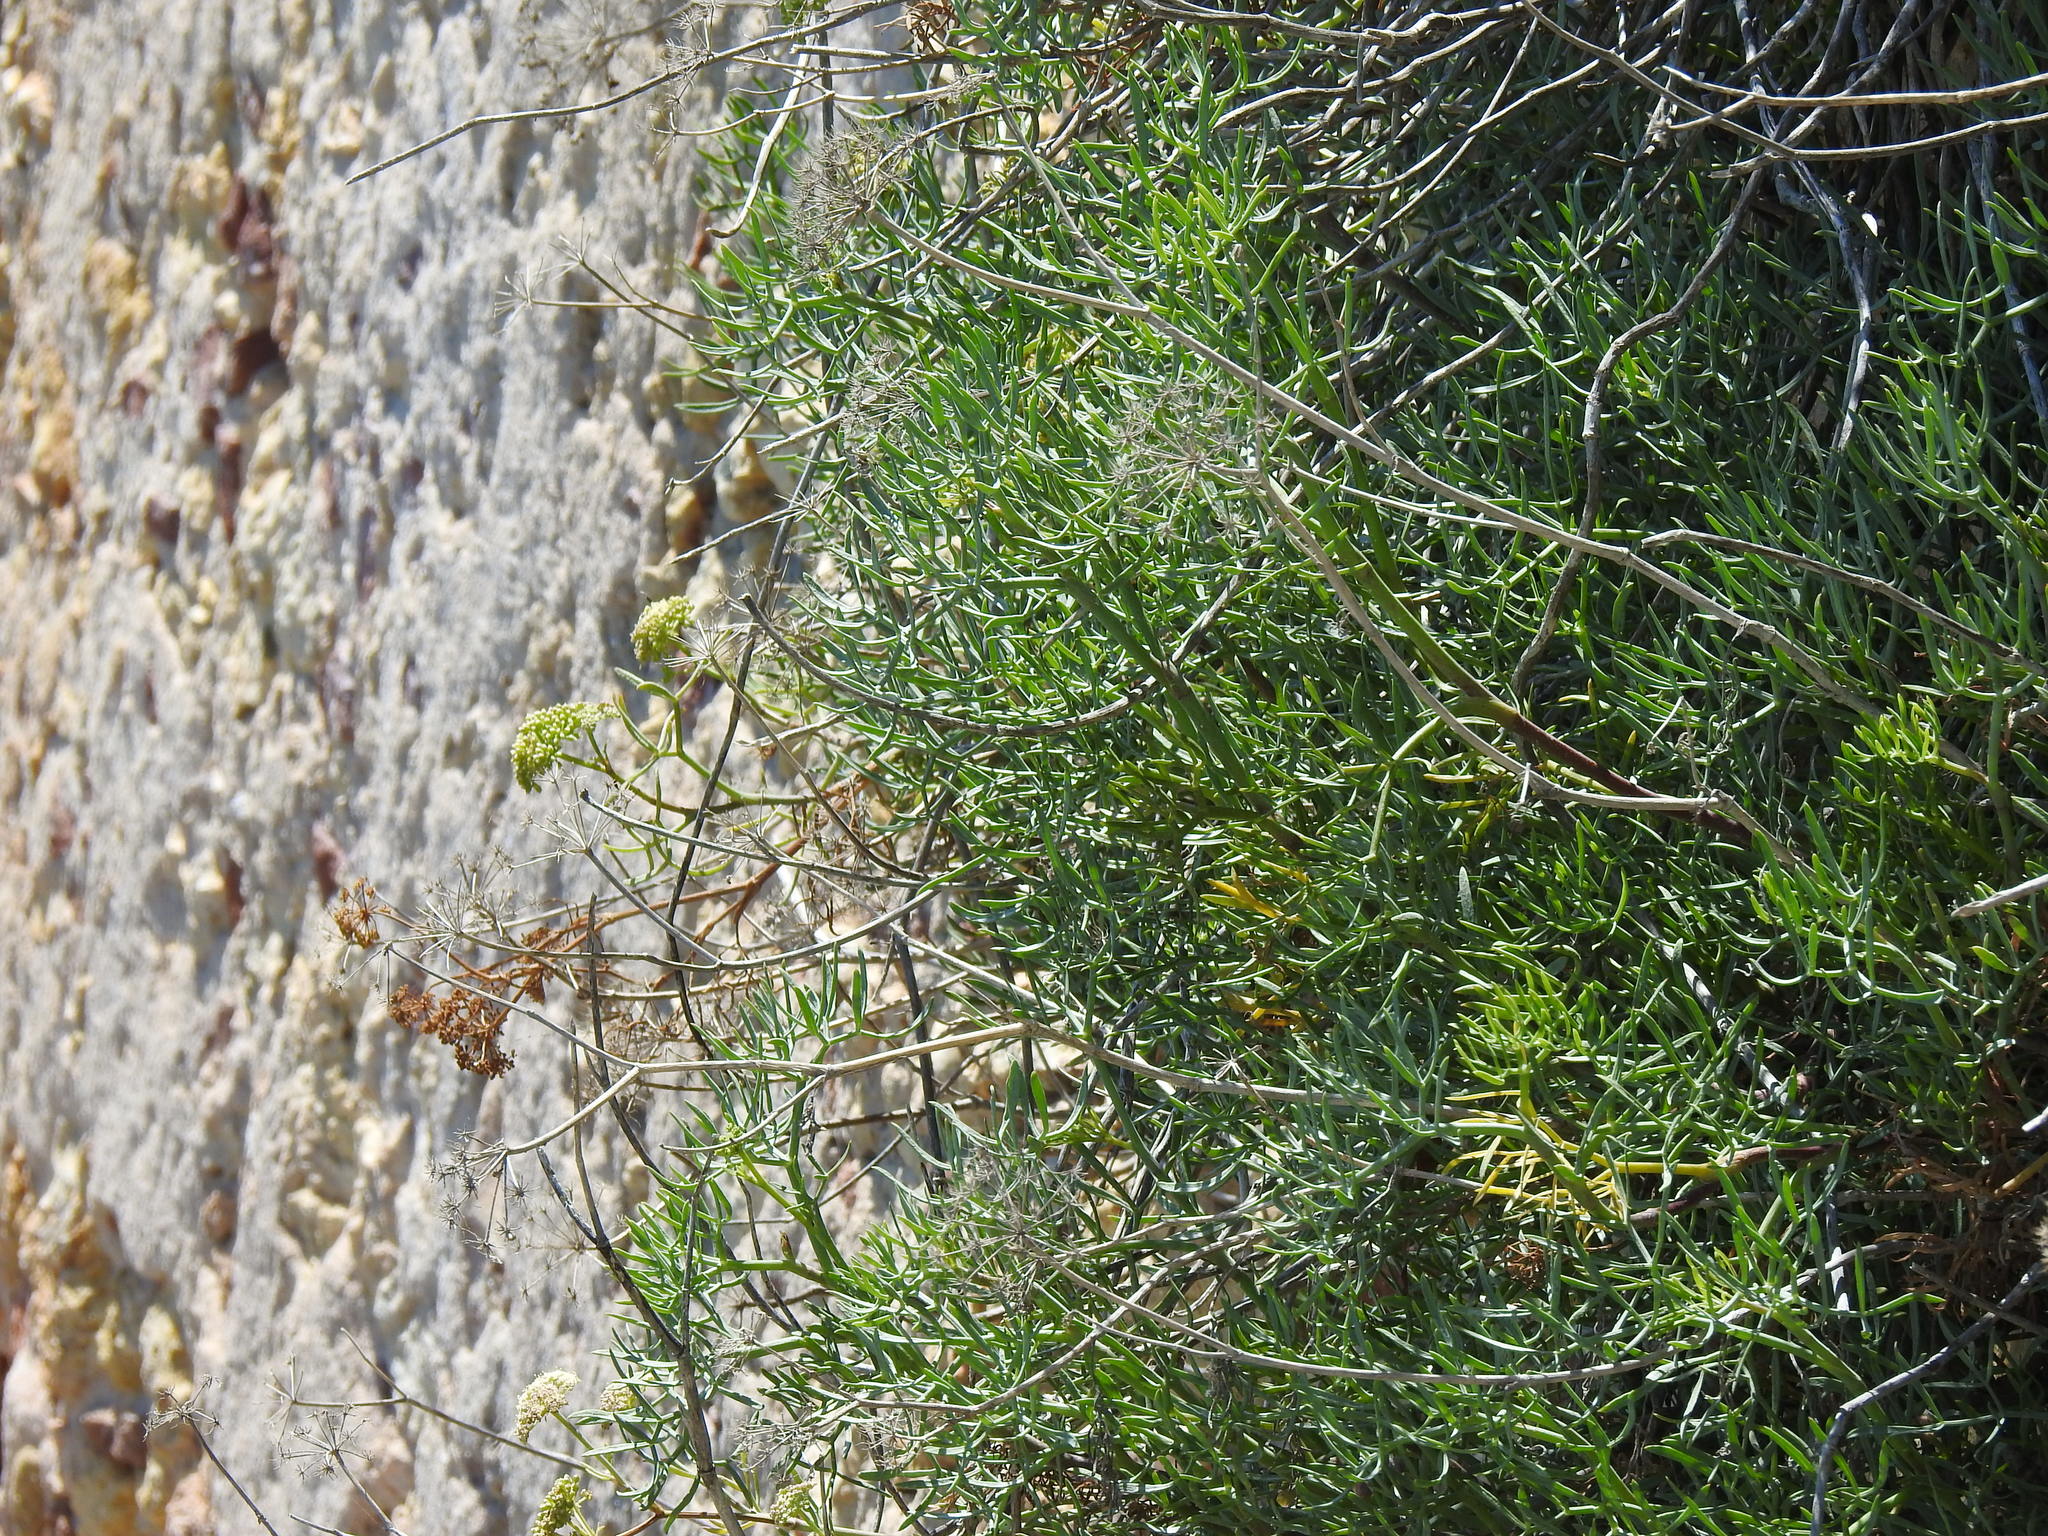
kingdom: Plantae
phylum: Tracheophyta
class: Magnoliopsida
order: Apiales
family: Apiaceae
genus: Crithmum
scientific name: Crithmum maritimum
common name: Rock samphire
